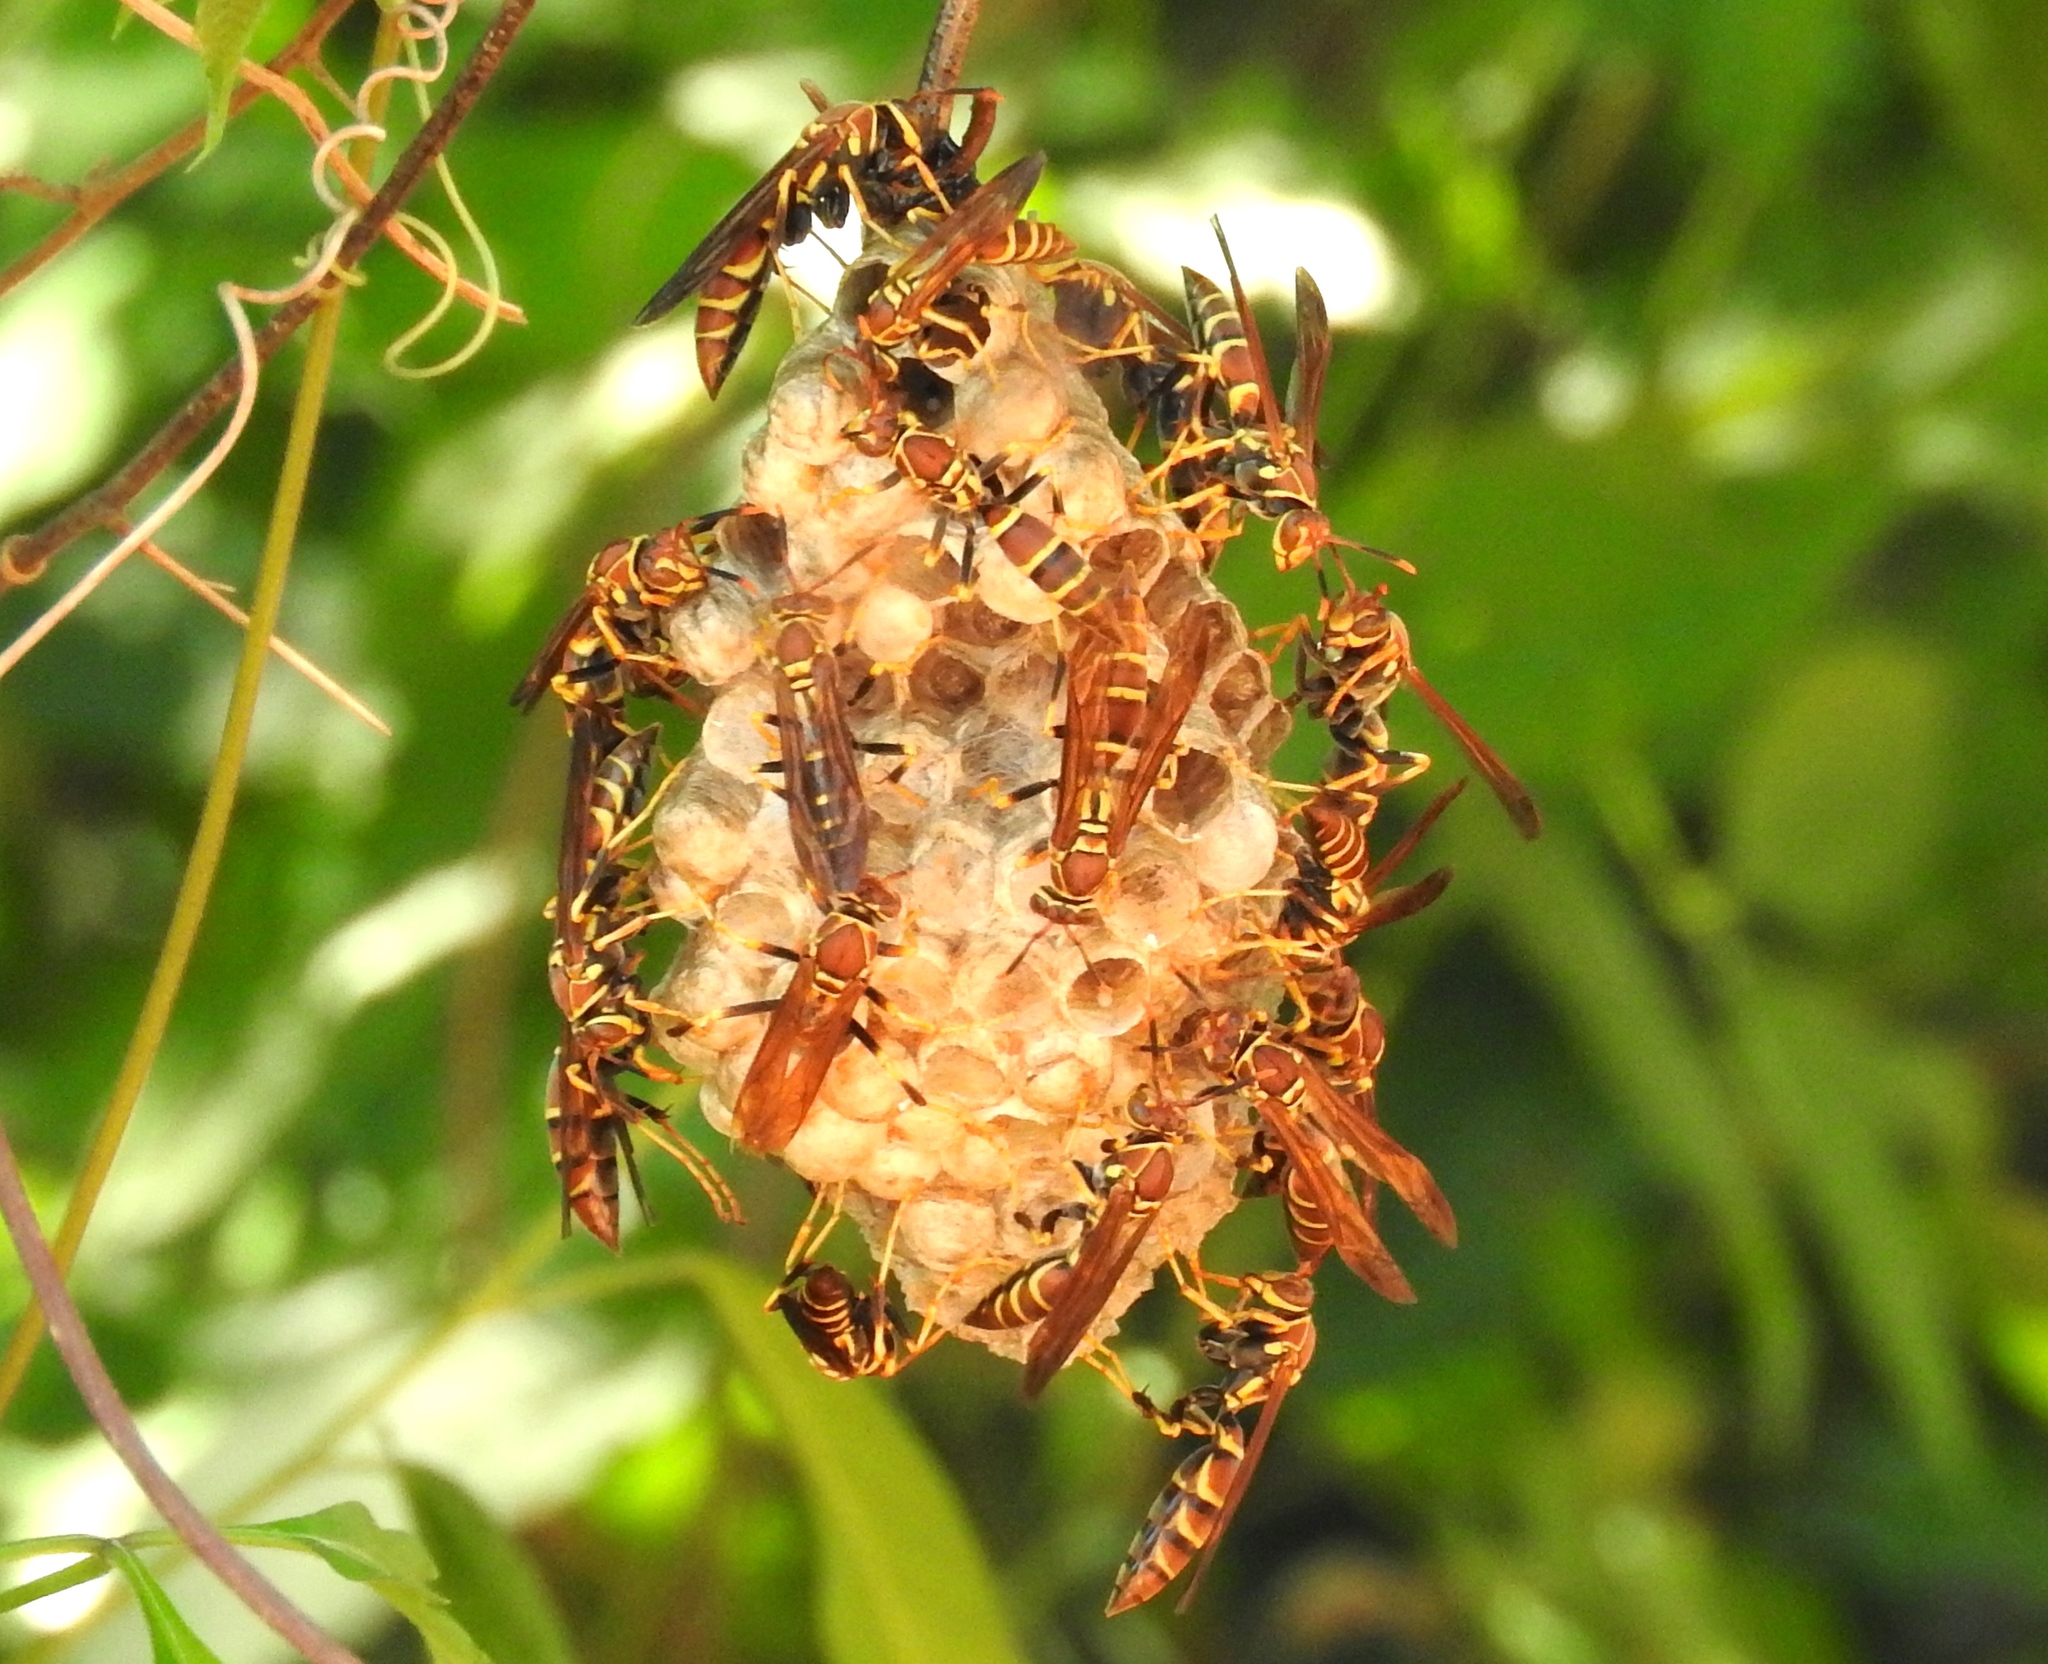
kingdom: Animalia
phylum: Arthropoda
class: Insecta
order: Hymenoptera
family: Eumenidae
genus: Polistes
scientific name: Polistes instabilis
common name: Unstable paper wasp
